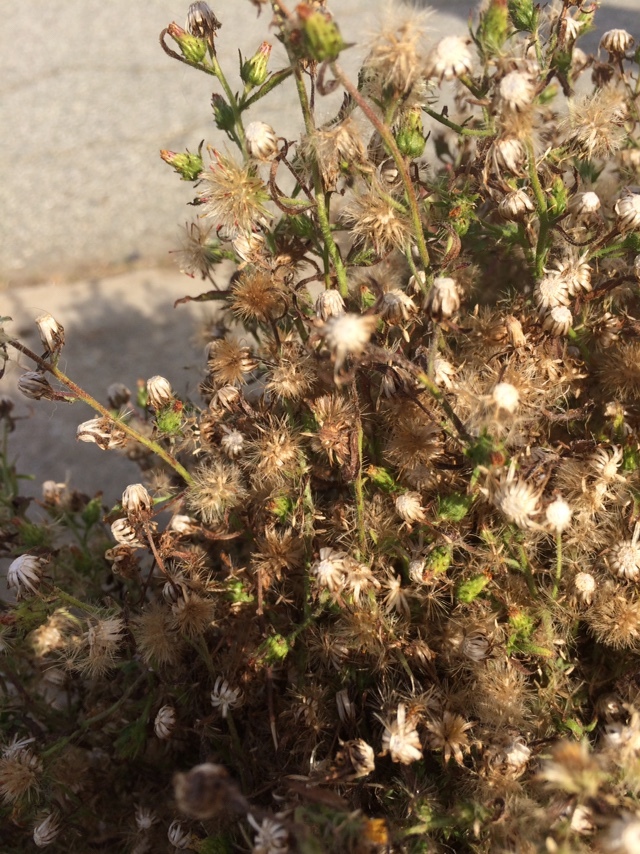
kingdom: Plantae
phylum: Tracheophyta
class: Magnoliopsida
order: Asterales
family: Asteraceae
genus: Dittrichia
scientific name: Dittrichia graveolens
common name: Stinking fleabane
